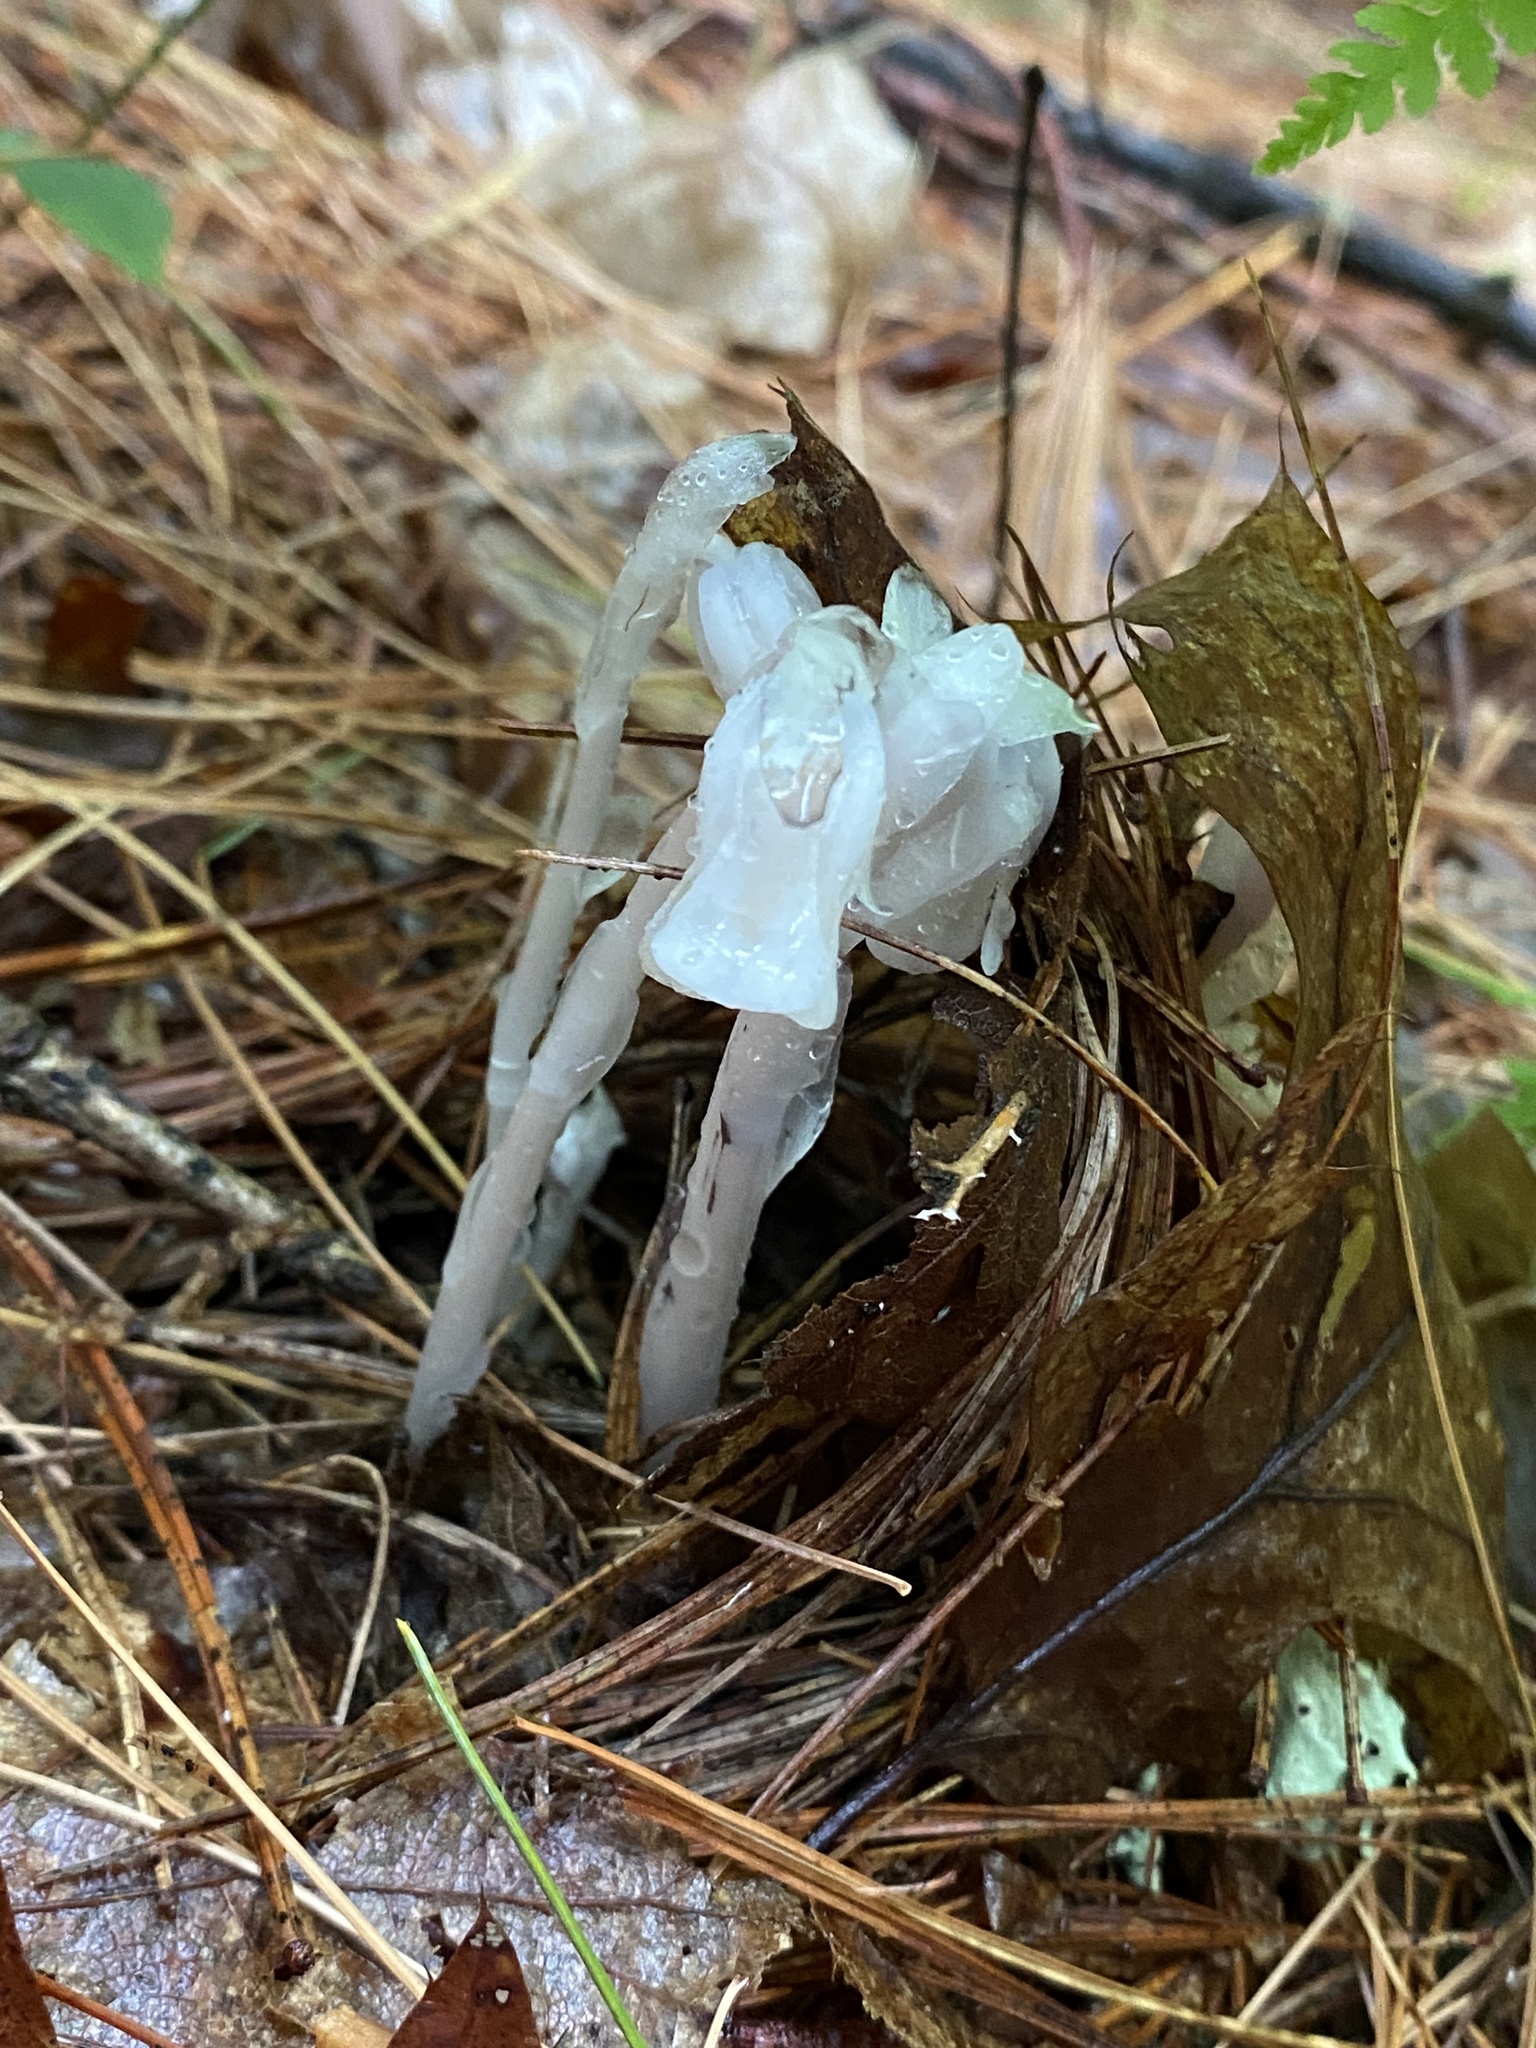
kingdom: Plantae
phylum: Tracheophyta
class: Magnoliopsida
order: Ericales
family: Ericaceae
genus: Monotropa
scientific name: Monotropa uniflora
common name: Convulsion root
